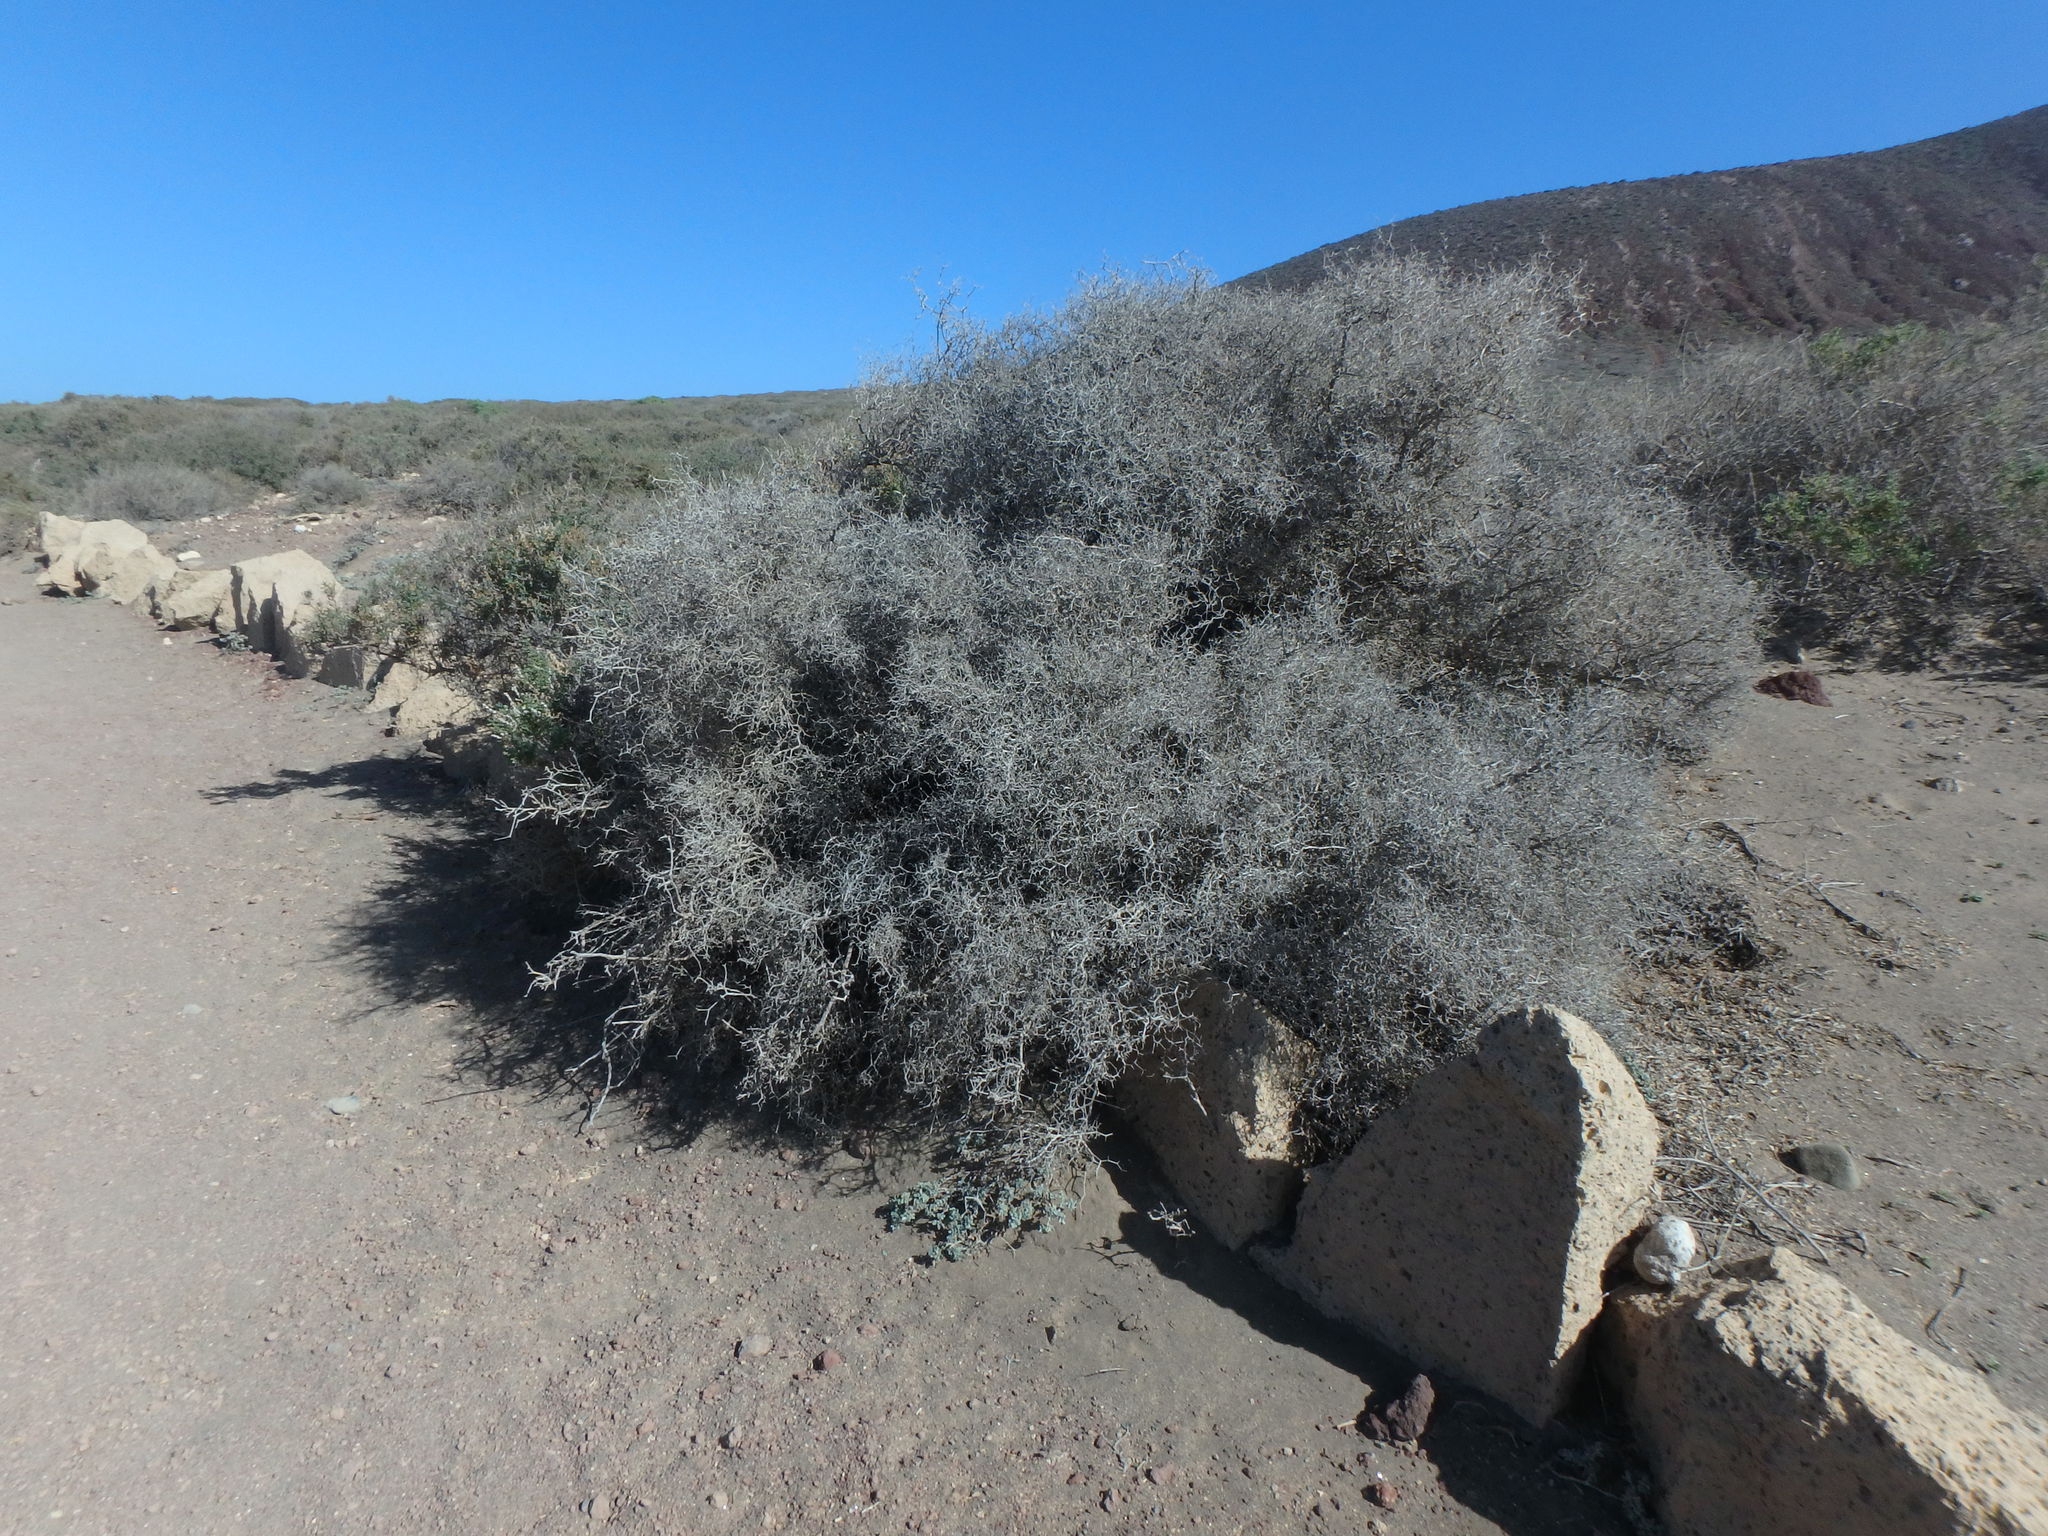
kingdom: Plantae
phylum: Tracheophyta
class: Magnoliopsida
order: Asterales
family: Asteraceae
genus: Launaea
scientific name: Launaea arborescens
